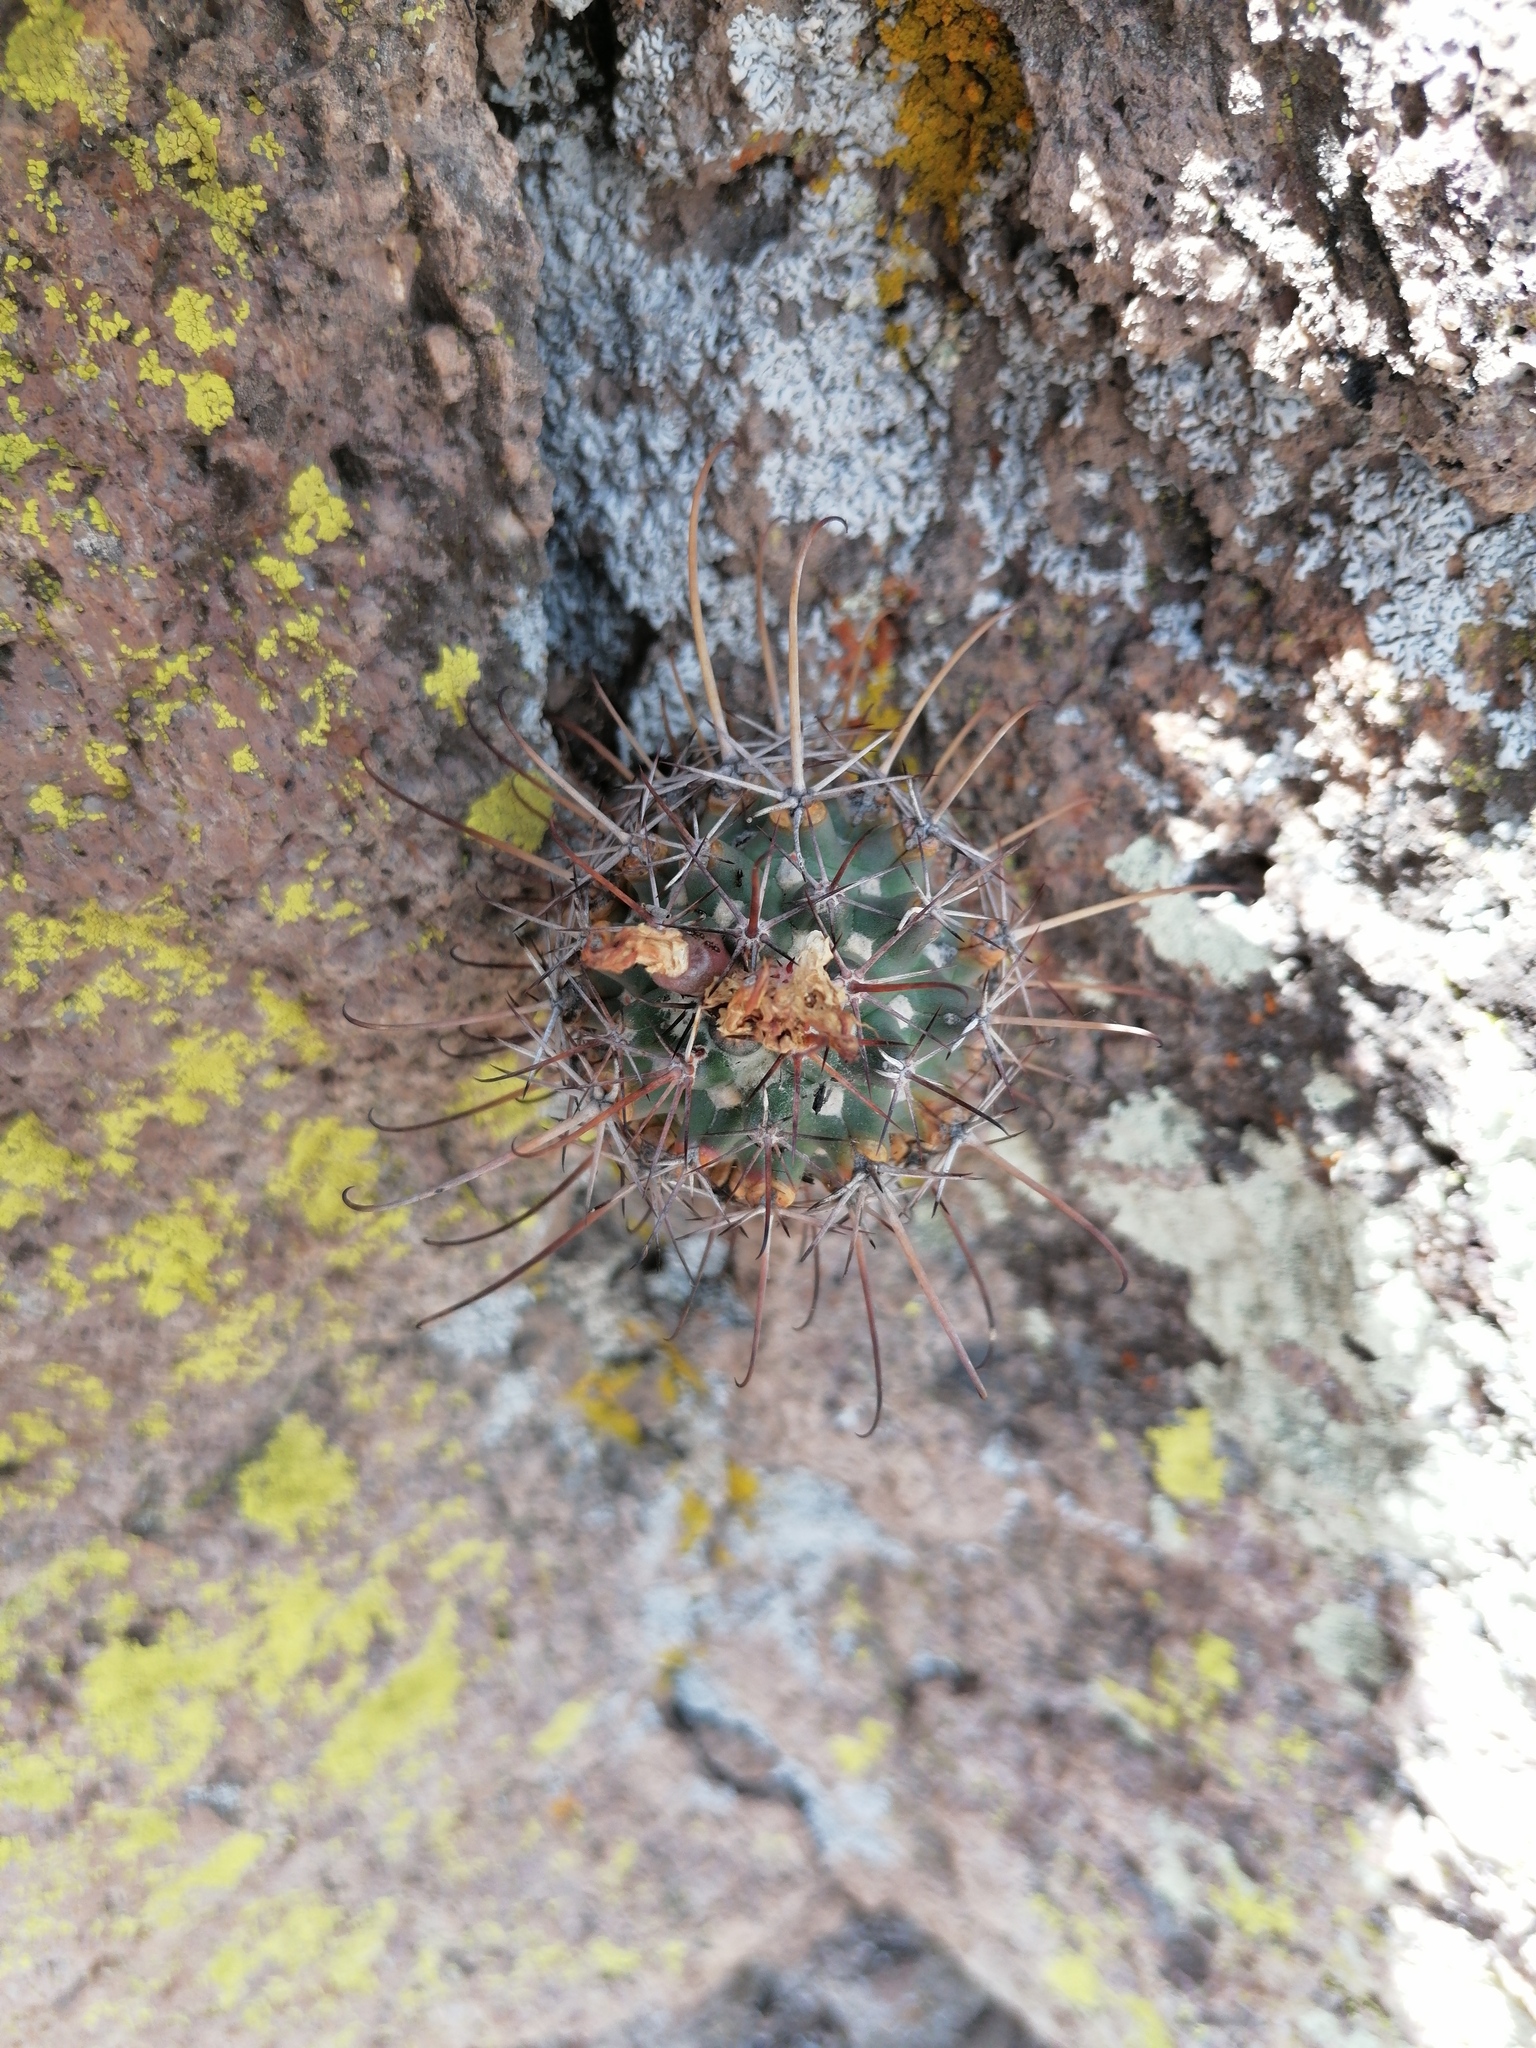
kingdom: Plantae
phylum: Tracheophyta
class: Magnoliopsida
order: Caryophyllales
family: Cactaceae
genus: Coryphantha
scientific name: Coryphantha clavata
